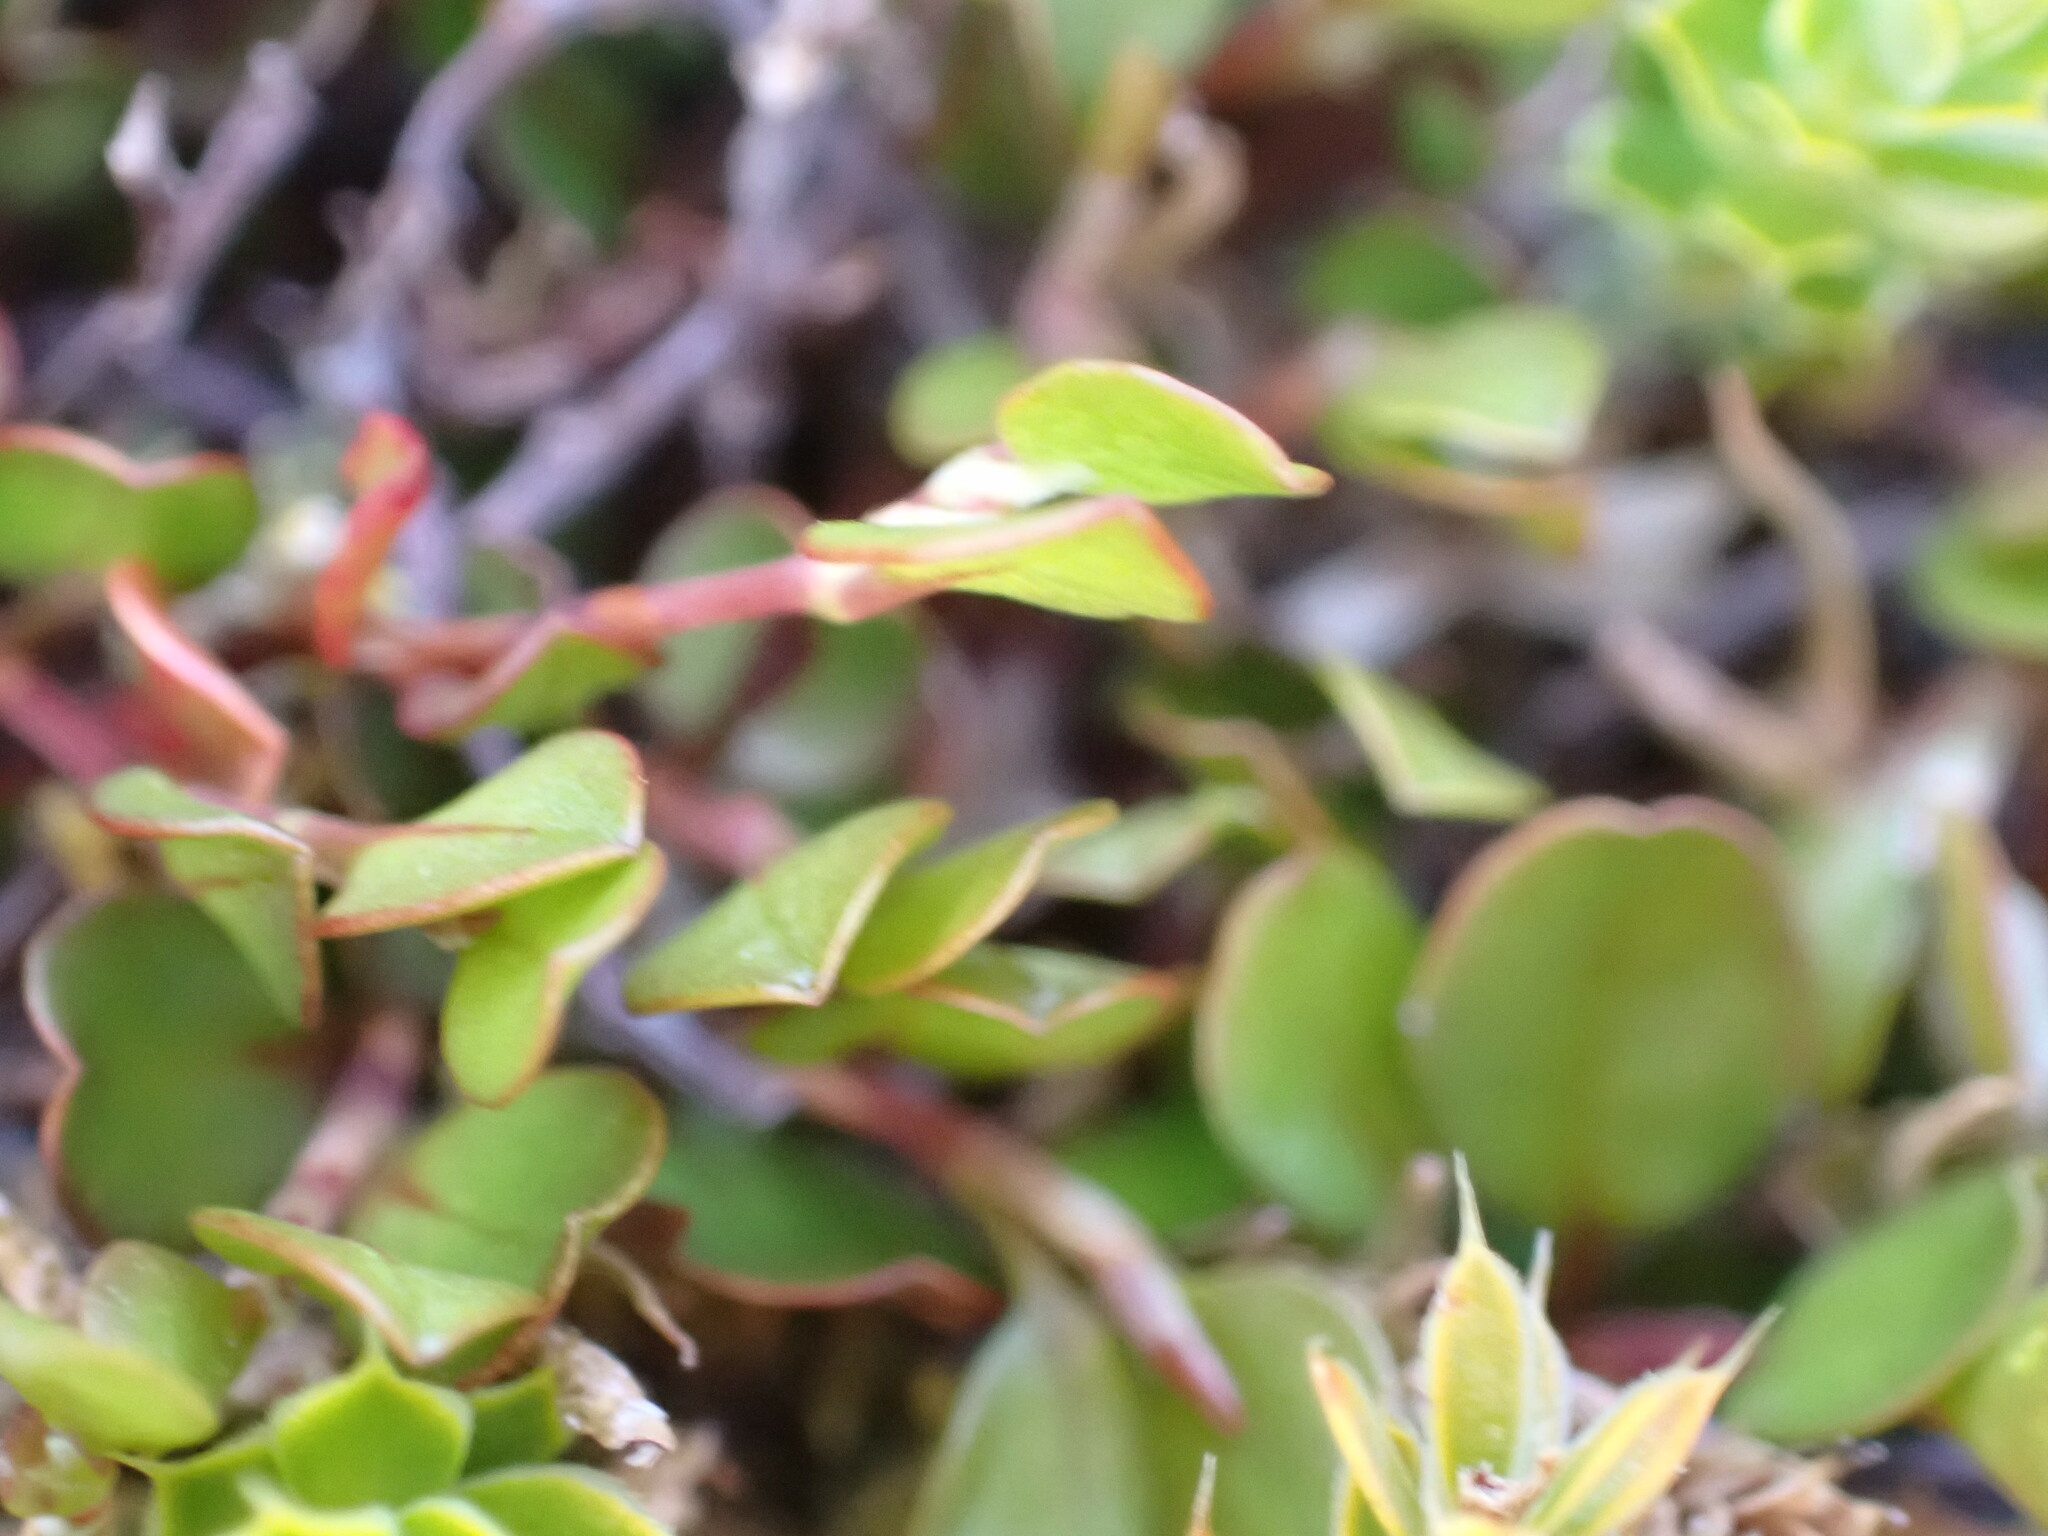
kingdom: Plantae
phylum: Tracheophyta
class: Magnoliopsida
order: Caryophyllales
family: Polygonaceae
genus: Muehlenbeckia
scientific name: Muehlenbeckia axillaris
